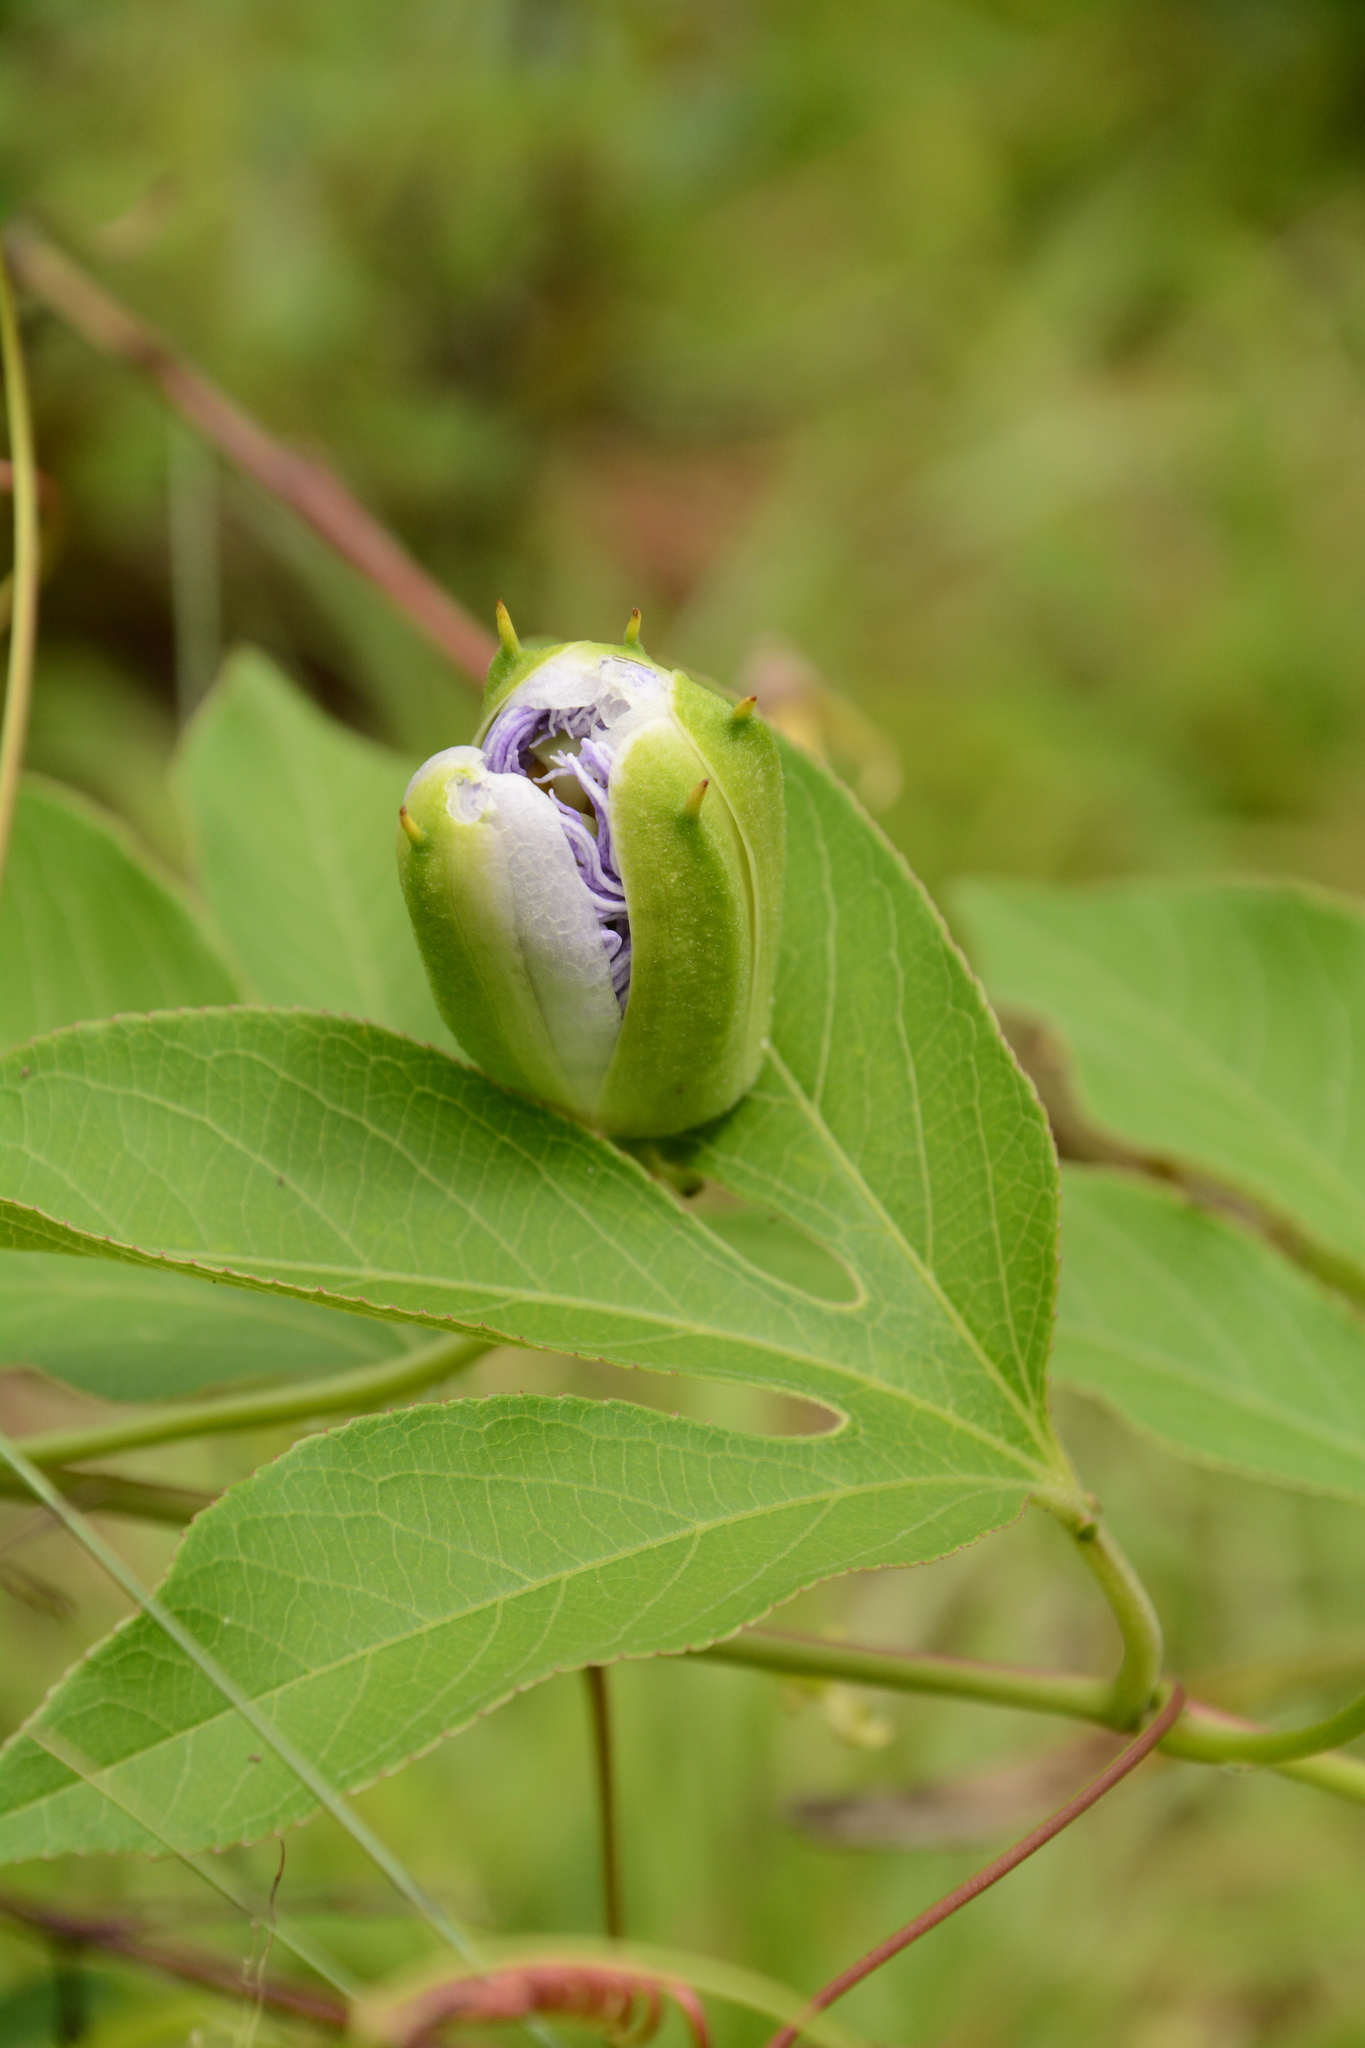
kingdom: Plantae
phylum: Tracheophyta
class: Magnoliopsida
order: Malpighiales
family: Passifloraceae
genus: Passiflora
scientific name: Passiflora incarnata
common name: Apricot-vine
